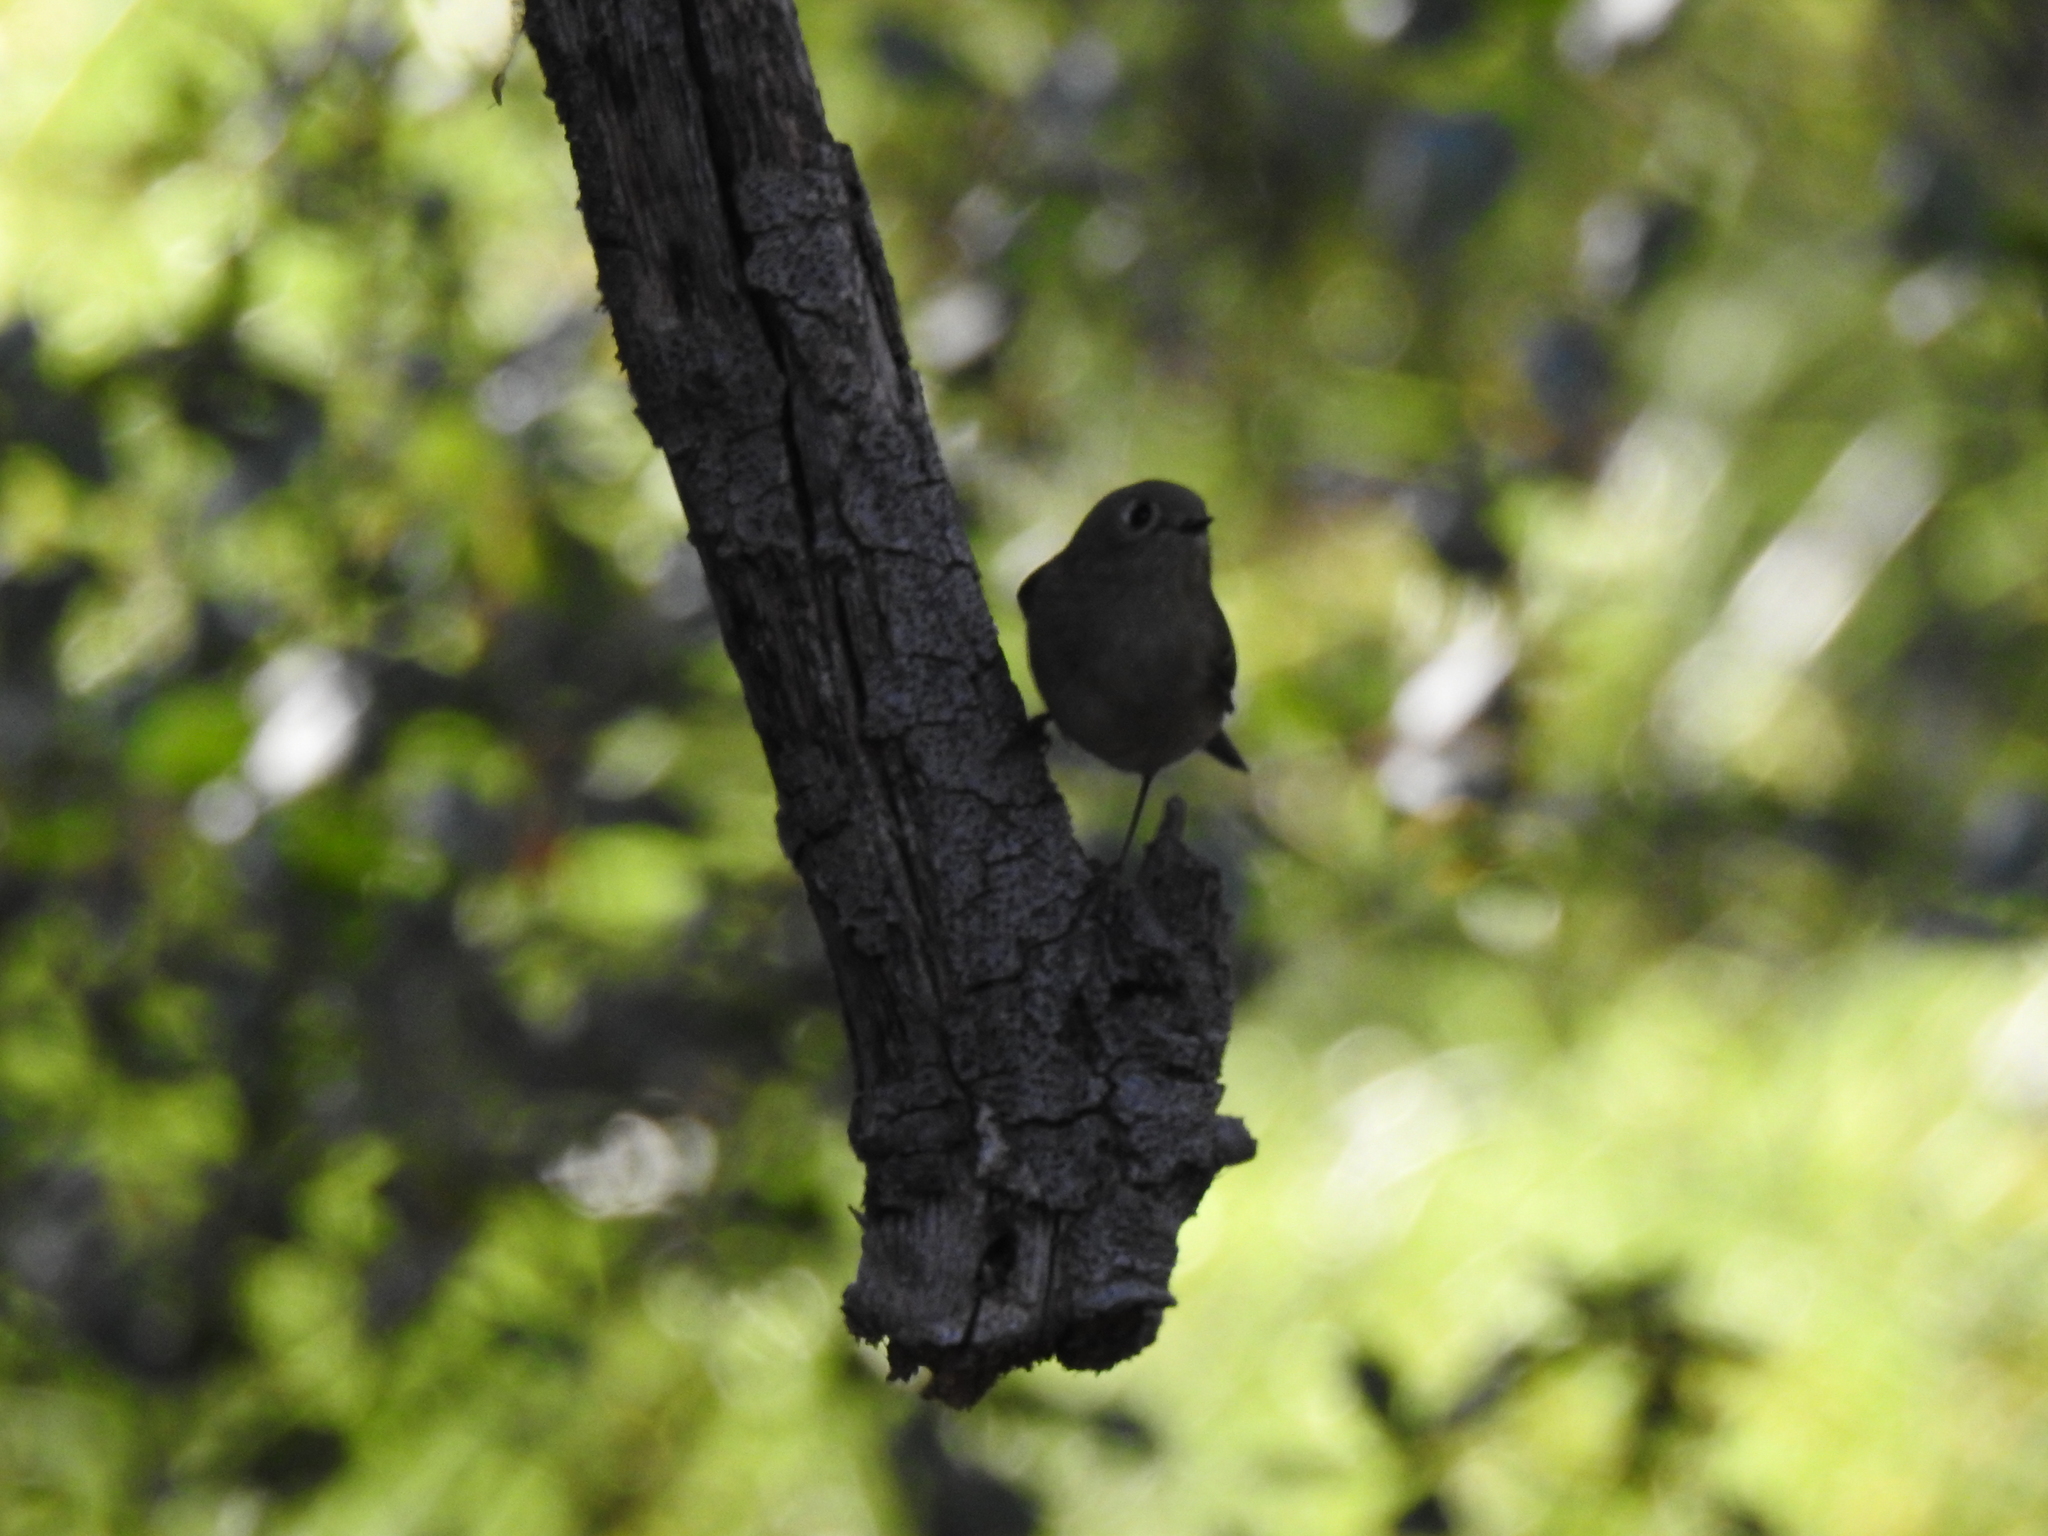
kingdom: Animalia
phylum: Chordata
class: Aves
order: Passeriformes
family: Regulidae
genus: Regulus
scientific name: Regulus calendula
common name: Ruby-crowned kinglet
